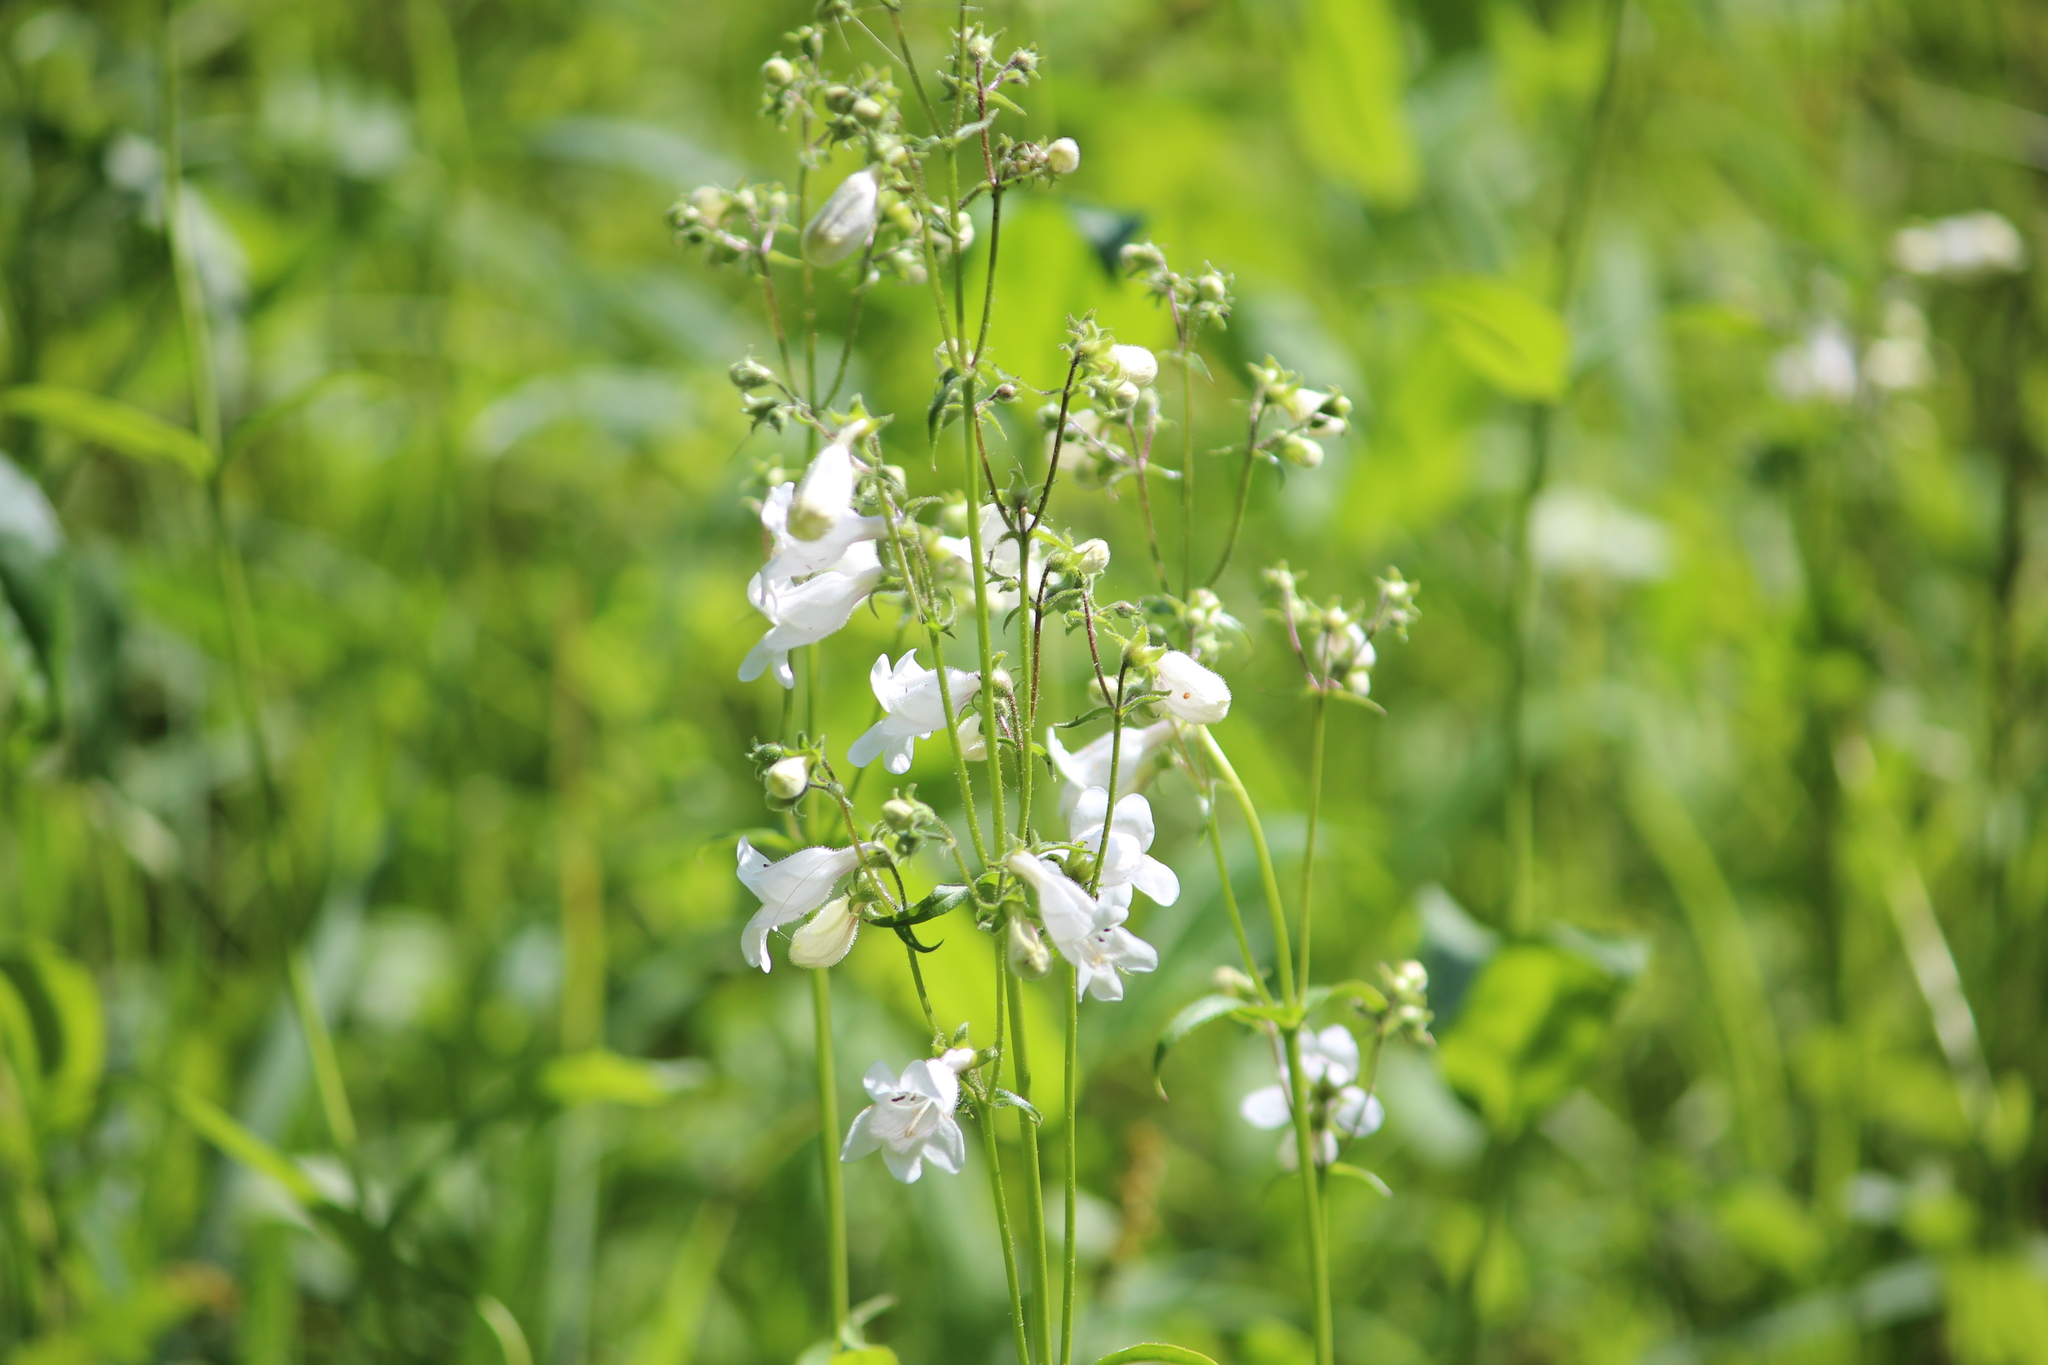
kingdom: Plantae
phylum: Tracheophyta
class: Magnoliopsida
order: Lamiales
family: Plantaginaceae
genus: Penstemon
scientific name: Penstemon digitalis
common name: Foxglove beardtongue
